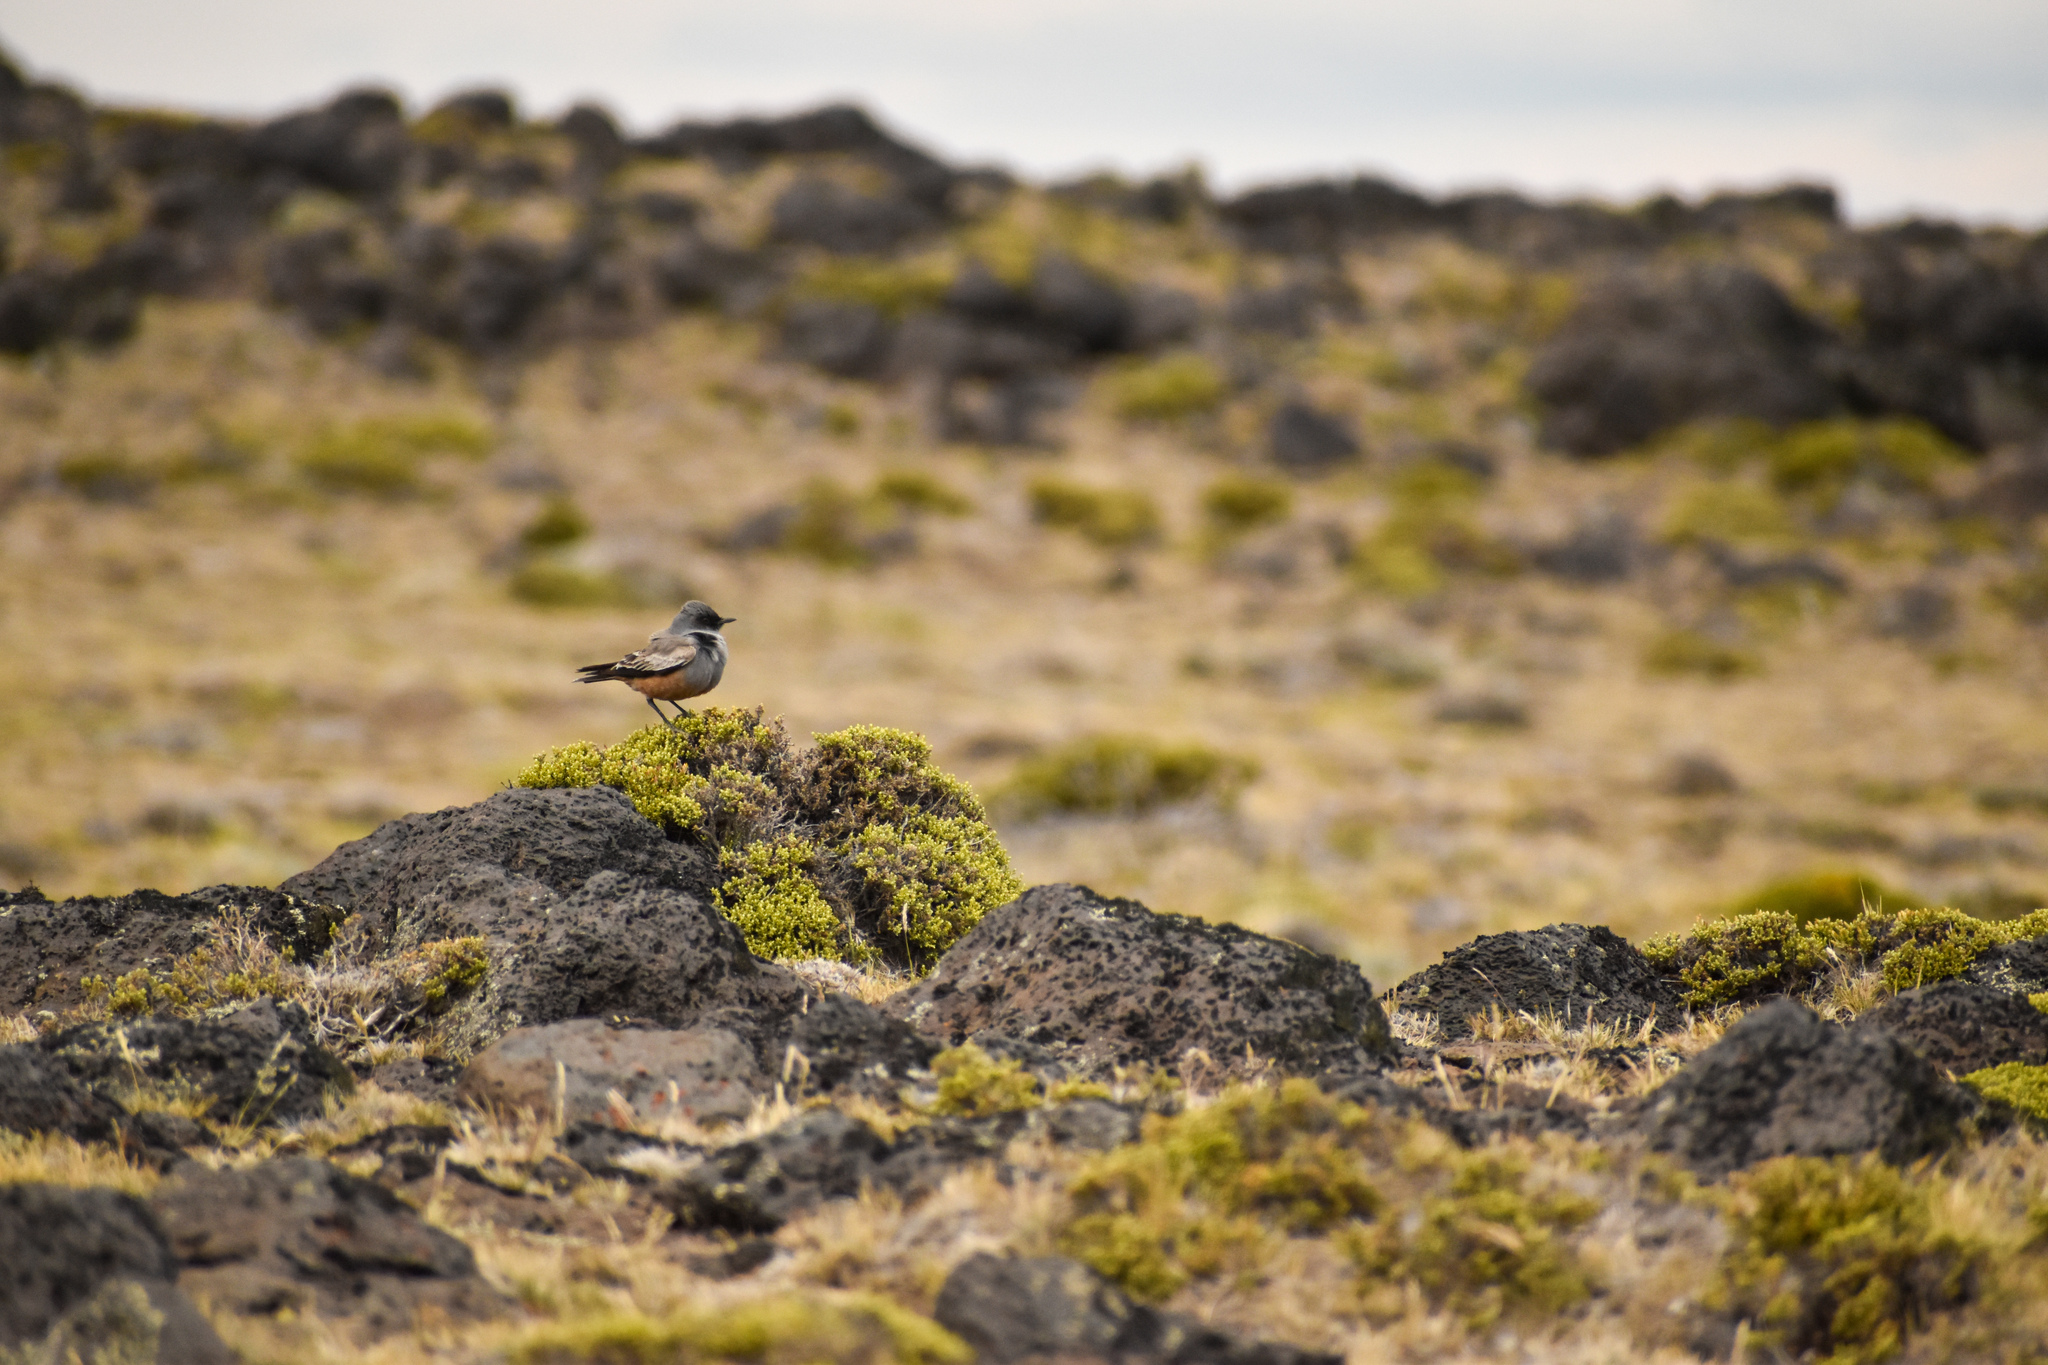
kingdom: Animalia
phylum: Chordata
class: Aves
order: Passeriformes
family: Tyrannidae
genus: Neoxolmis
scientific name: Neoxolmis rufiventris
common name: Chocolate-vented tyrant
